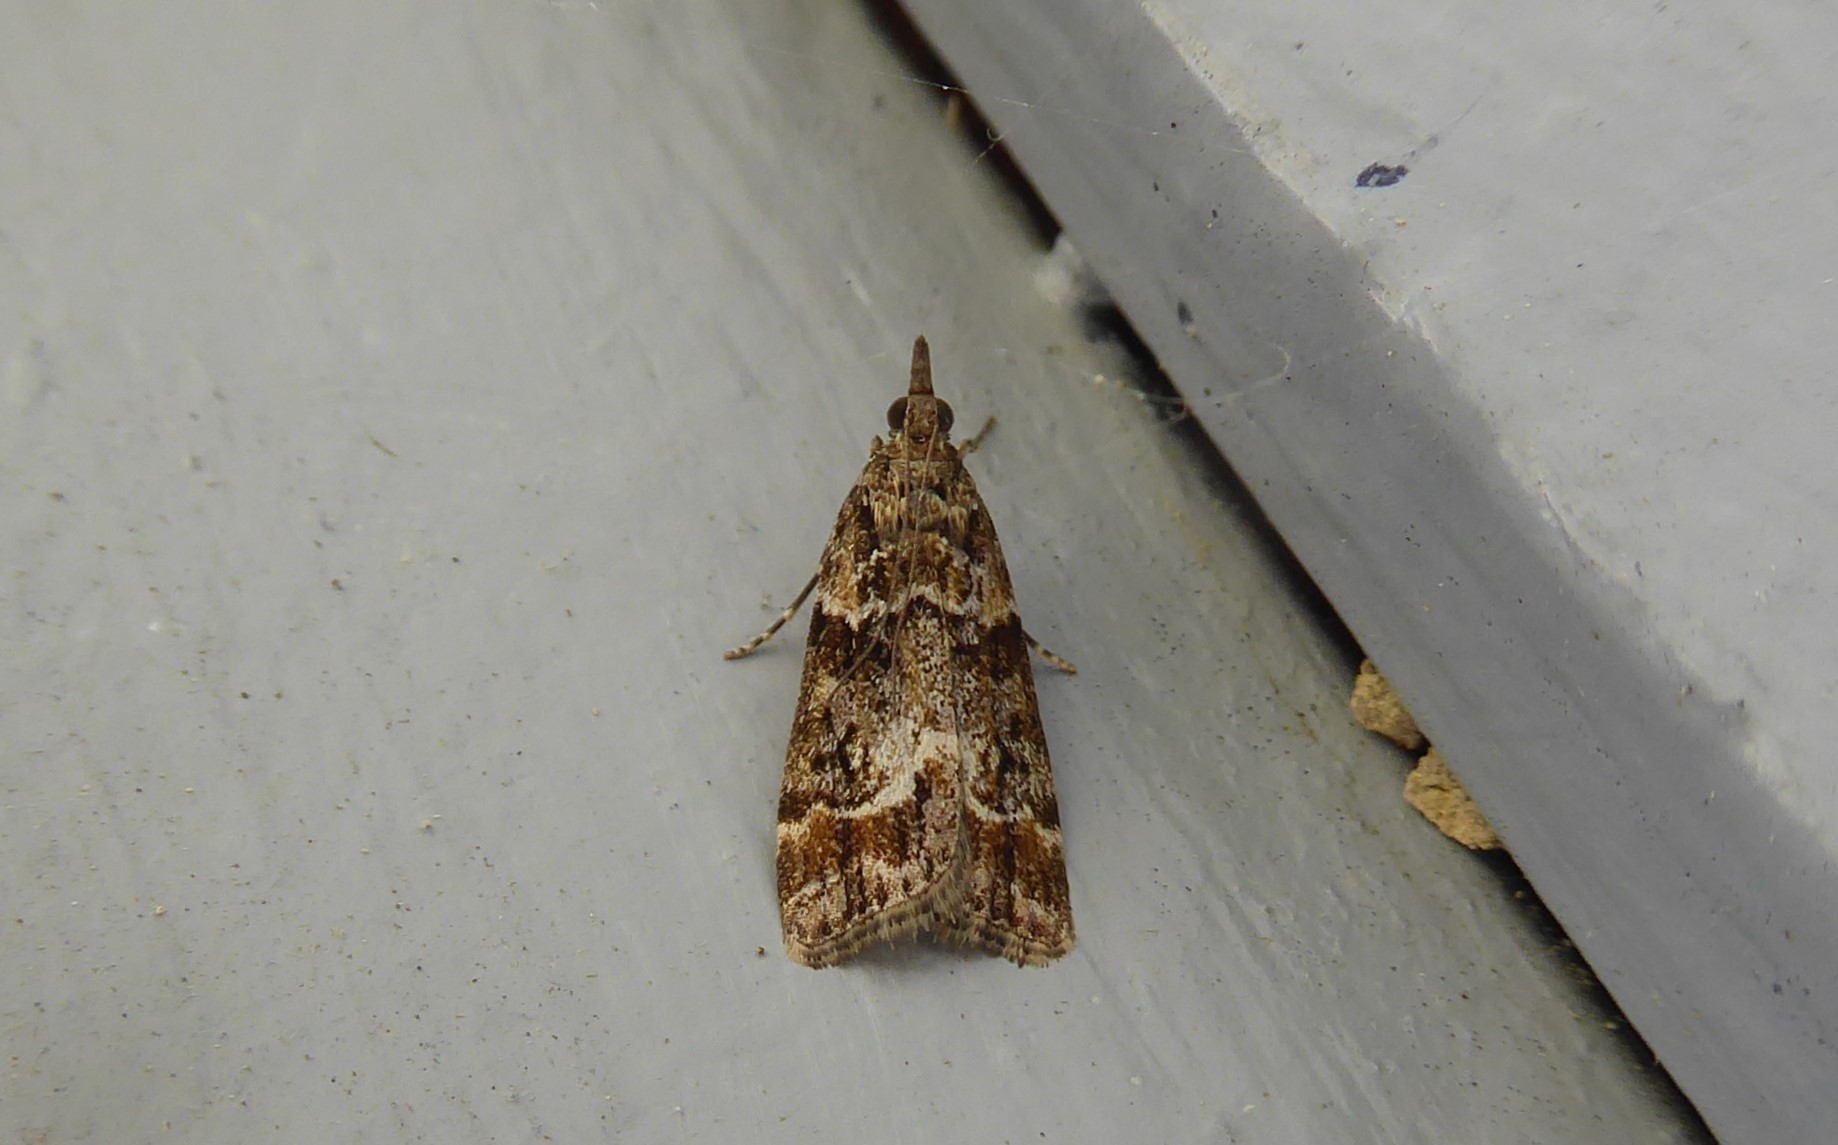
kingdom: Animalia
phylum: Arthropoda
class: Insecta
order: Lepidoptera
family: Crambidae
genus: Eudonia
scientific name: Eudonia legnota
